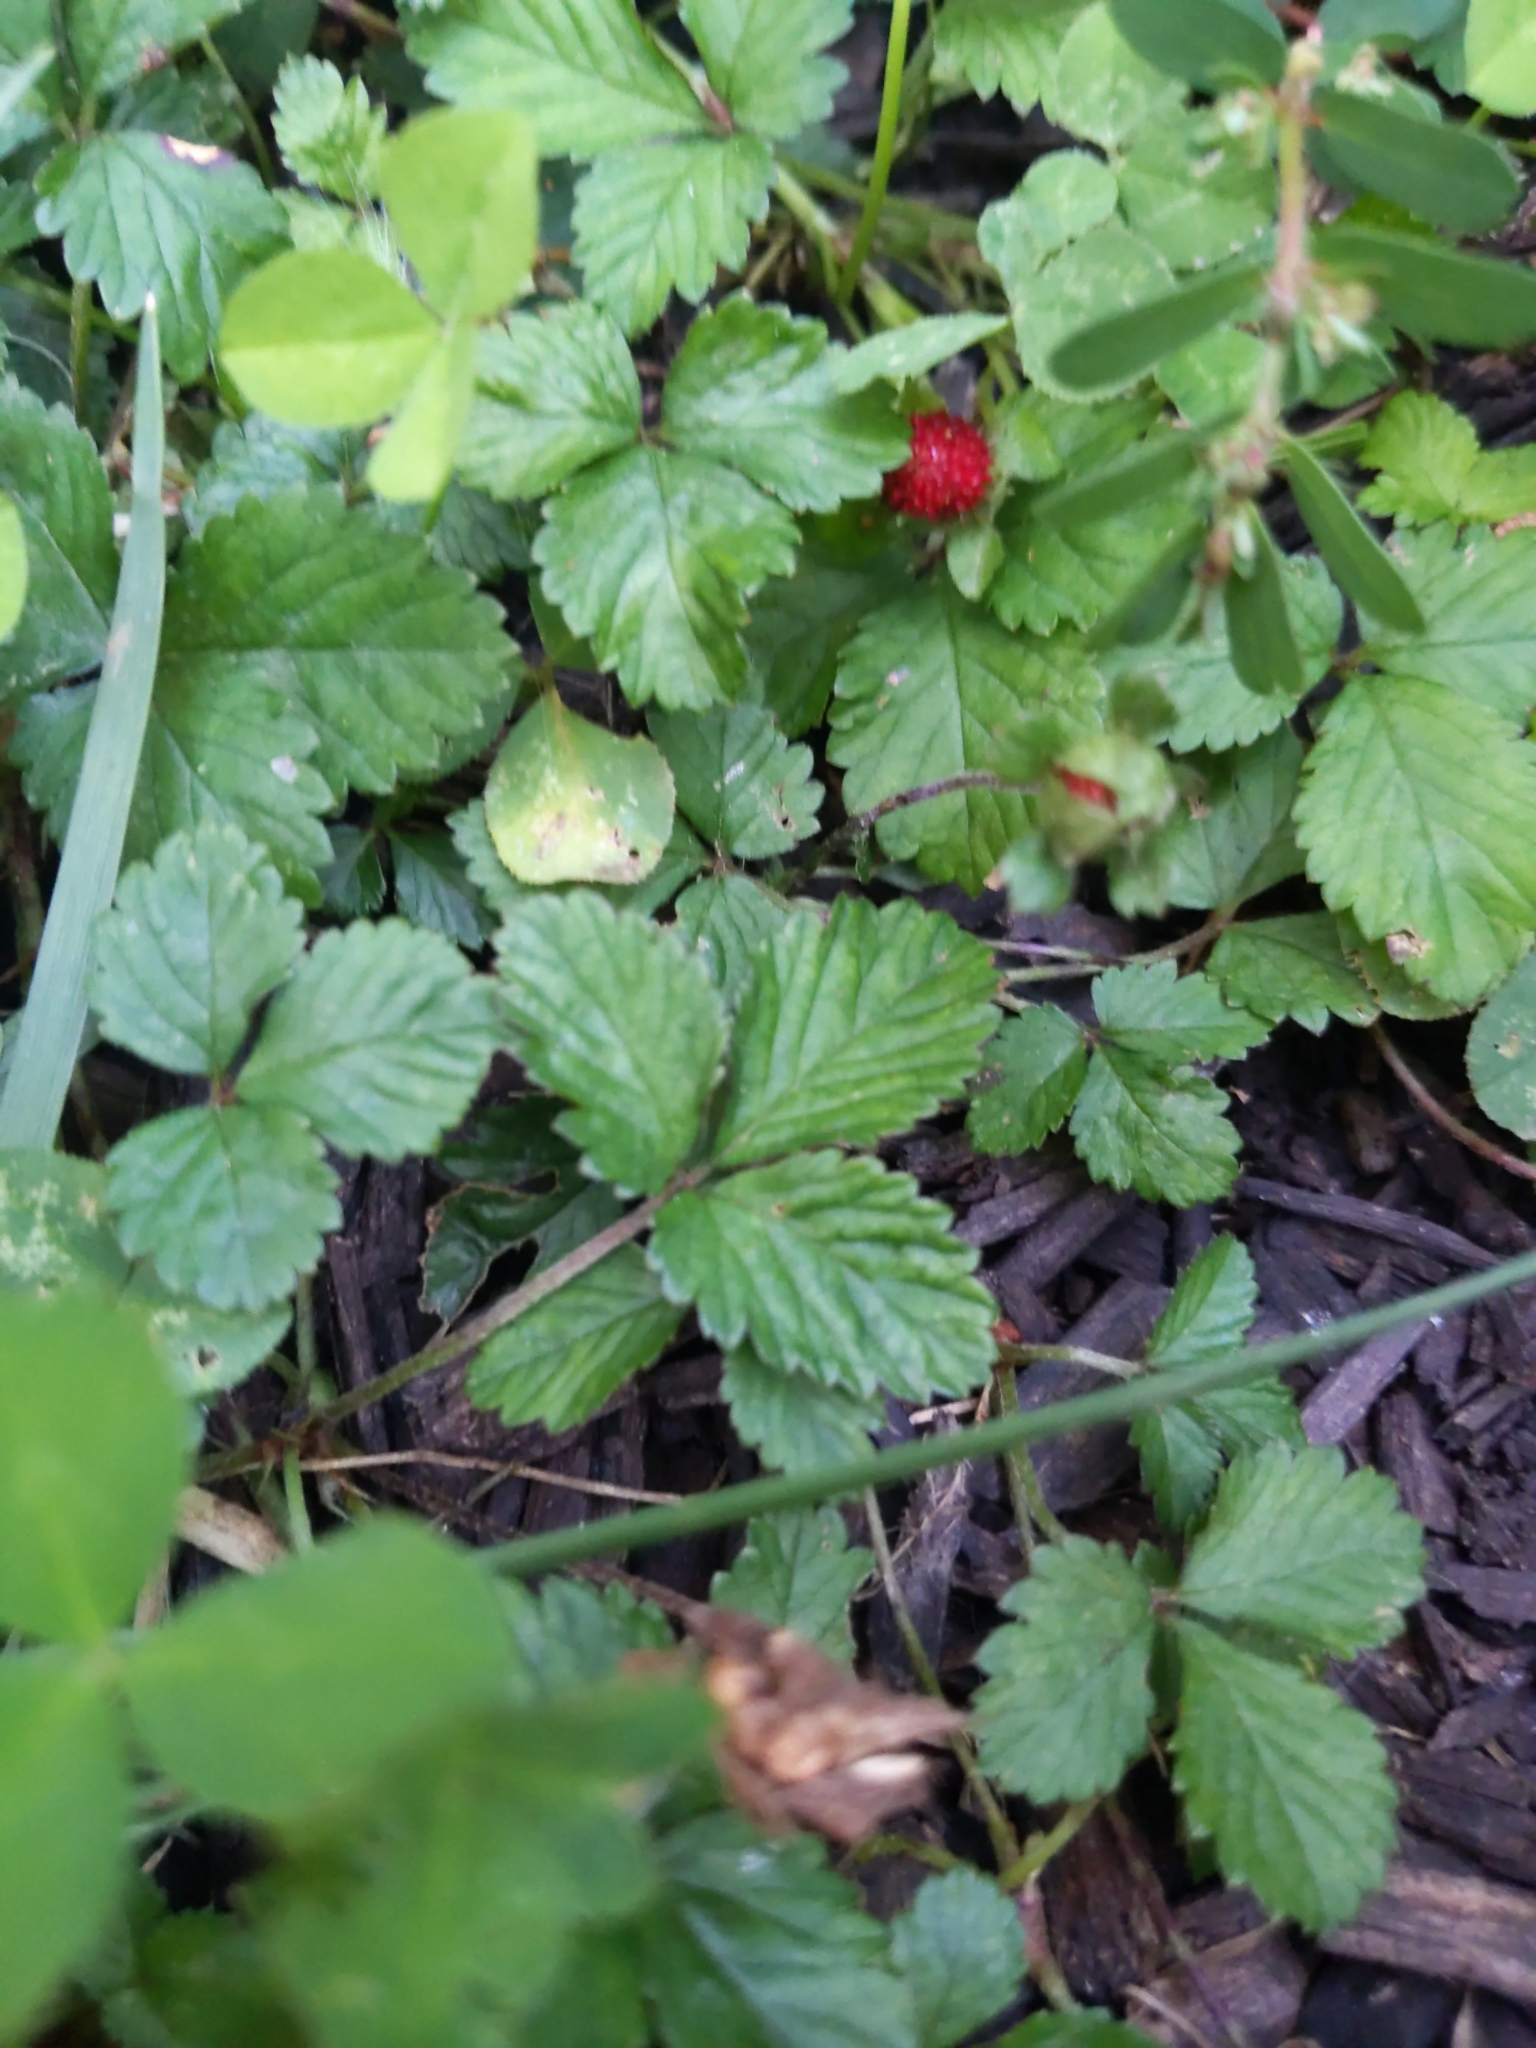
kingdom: Plantae
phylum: Tracheophyta
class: Magnoliopsida
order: Rosales
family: Rosaceae
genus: Potentilla
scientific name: Potentilla indica
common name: Yellow-flowered strawberry
